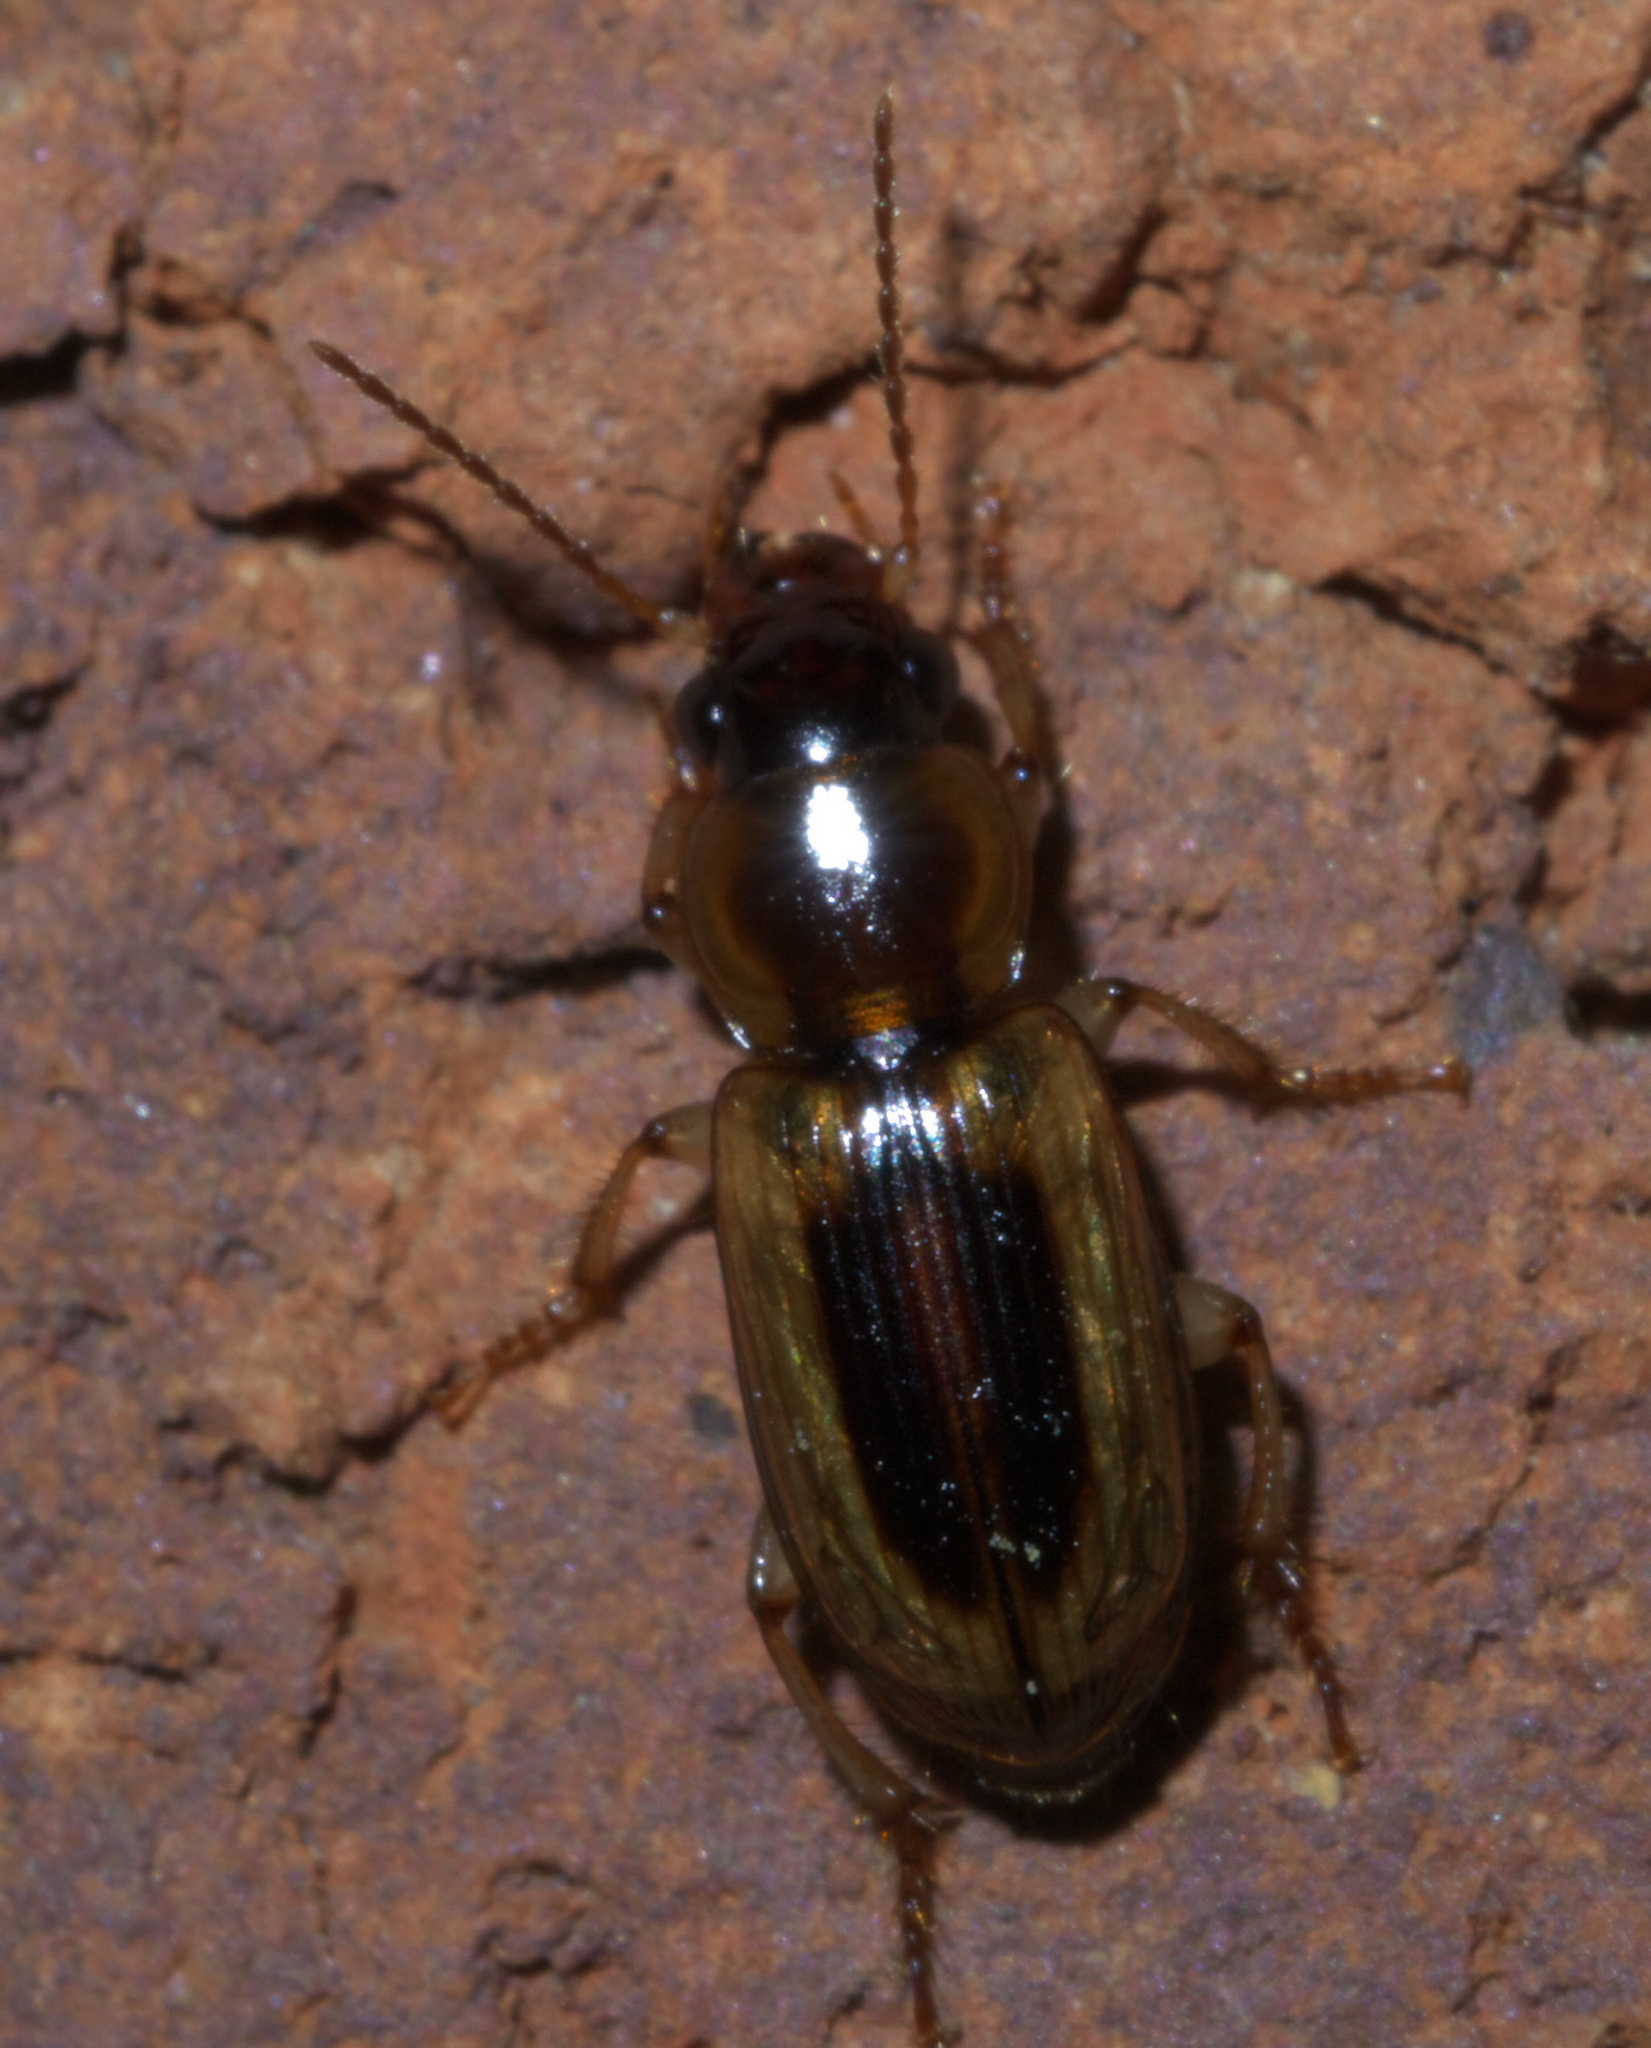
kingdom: Animalia
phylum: Arthropoda
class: Insecta
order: Coleoptera
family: Carabidae
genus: Stenolophus
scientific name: Stenolophus lecontei
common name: Leconte's seedcorn beetle
